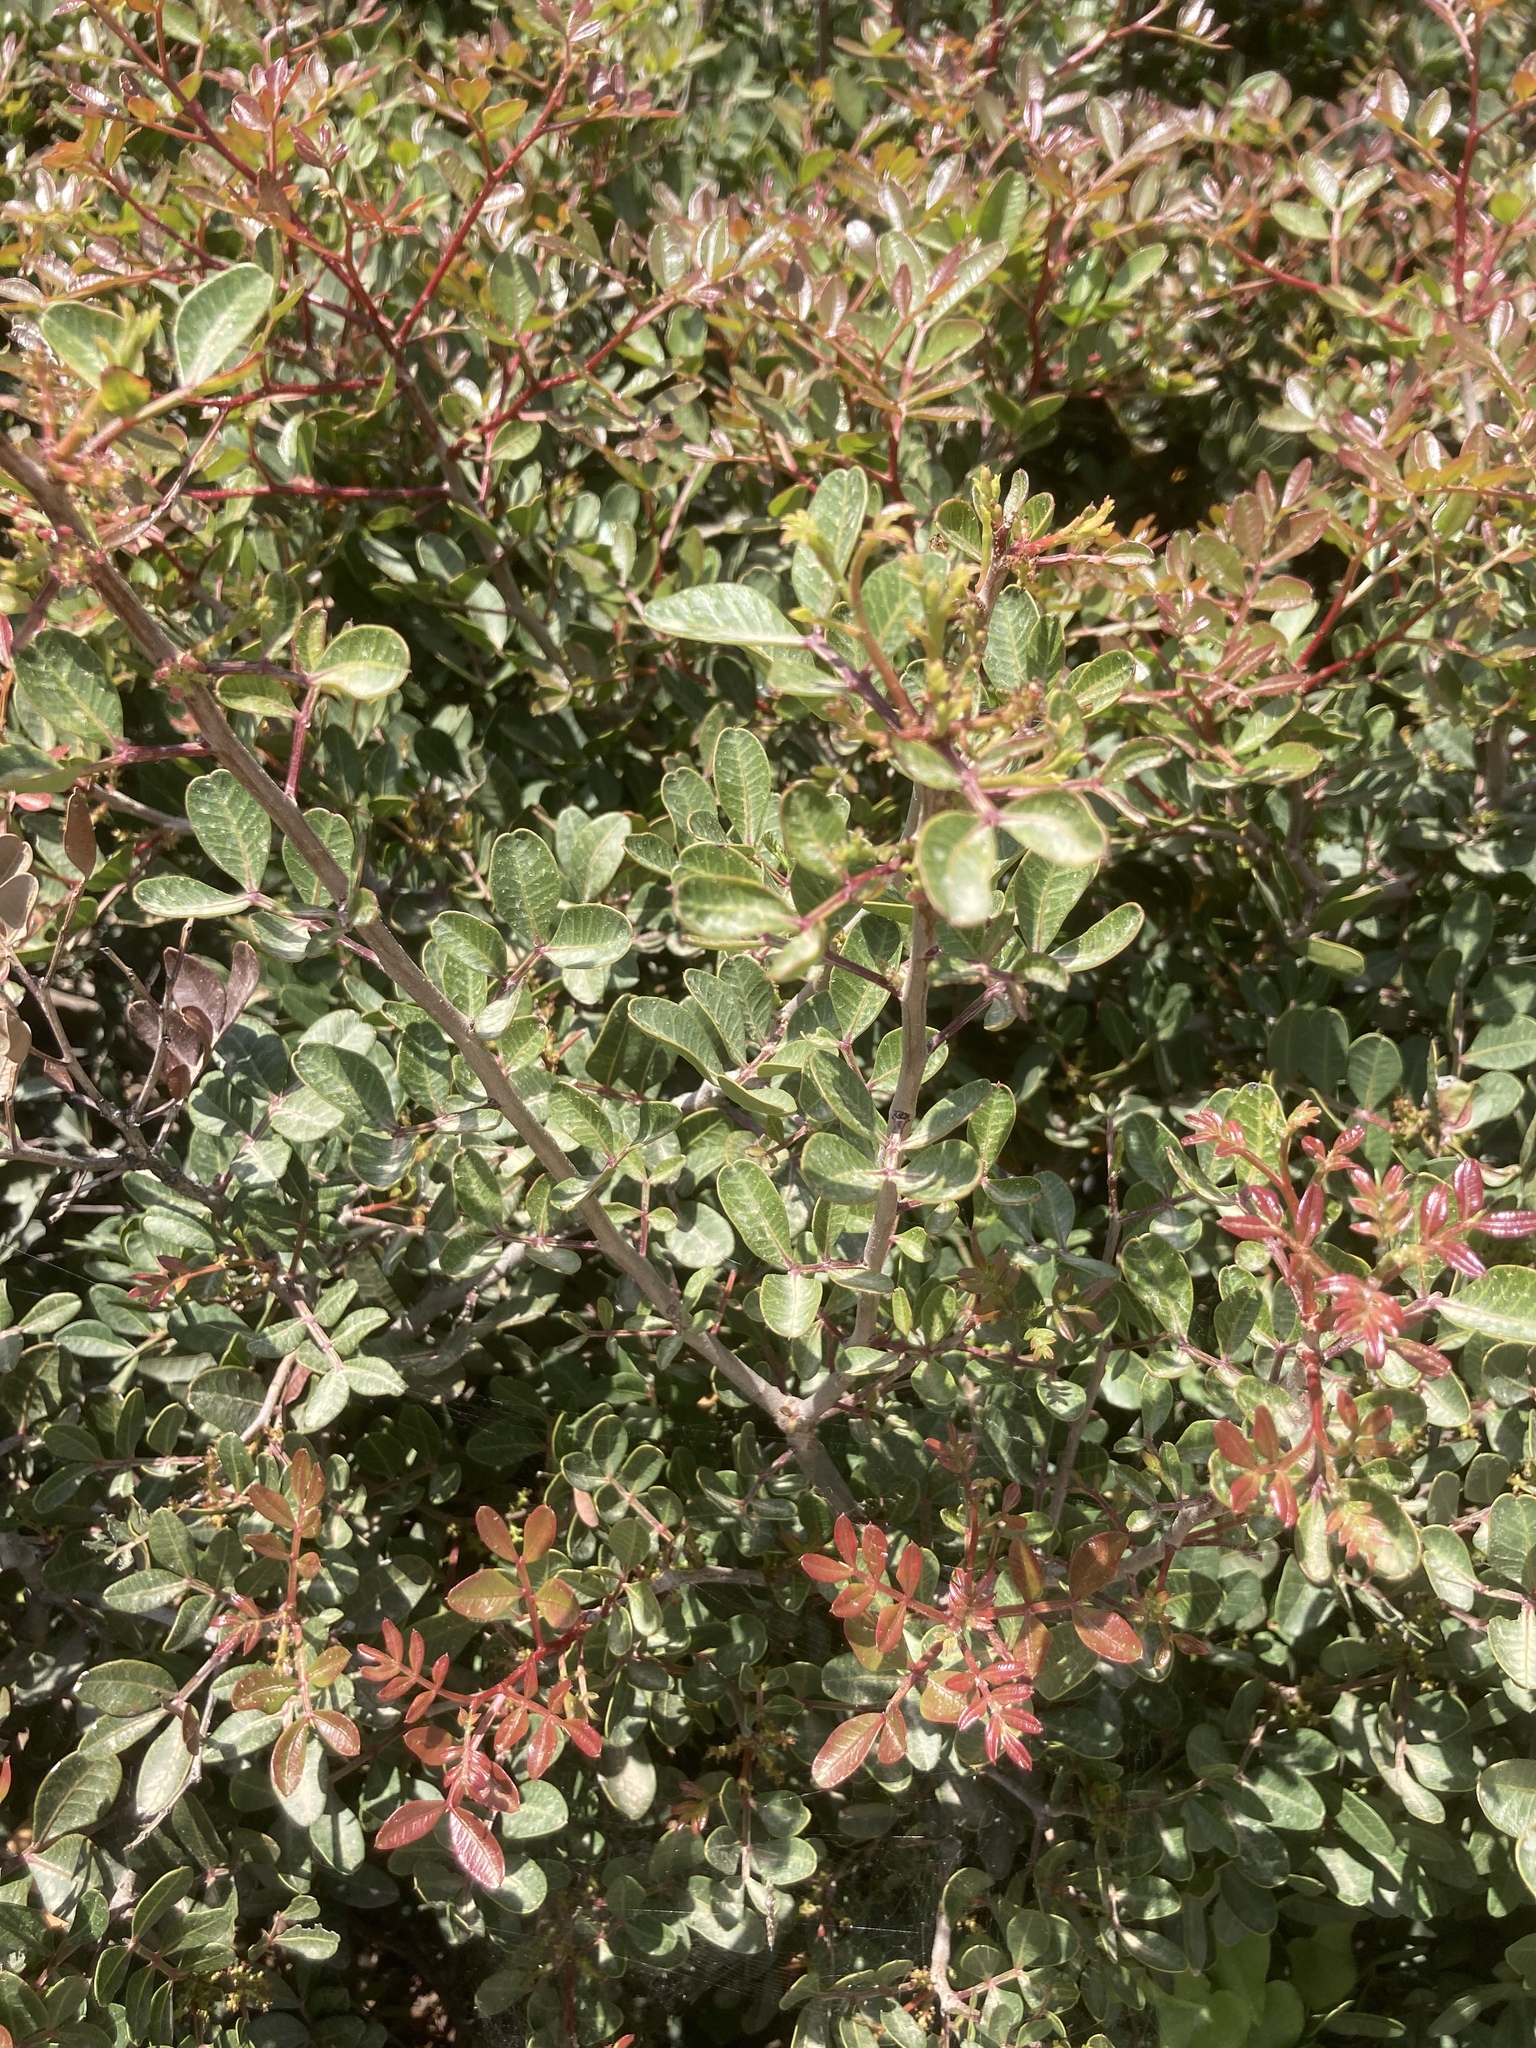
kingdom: Plantae
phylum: Tracheophyta
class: Magnoliopsida
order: Sapindales
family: Anacardiaceae
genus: Pistacia
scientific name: Pistacia lentiscus
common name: Lentisk
